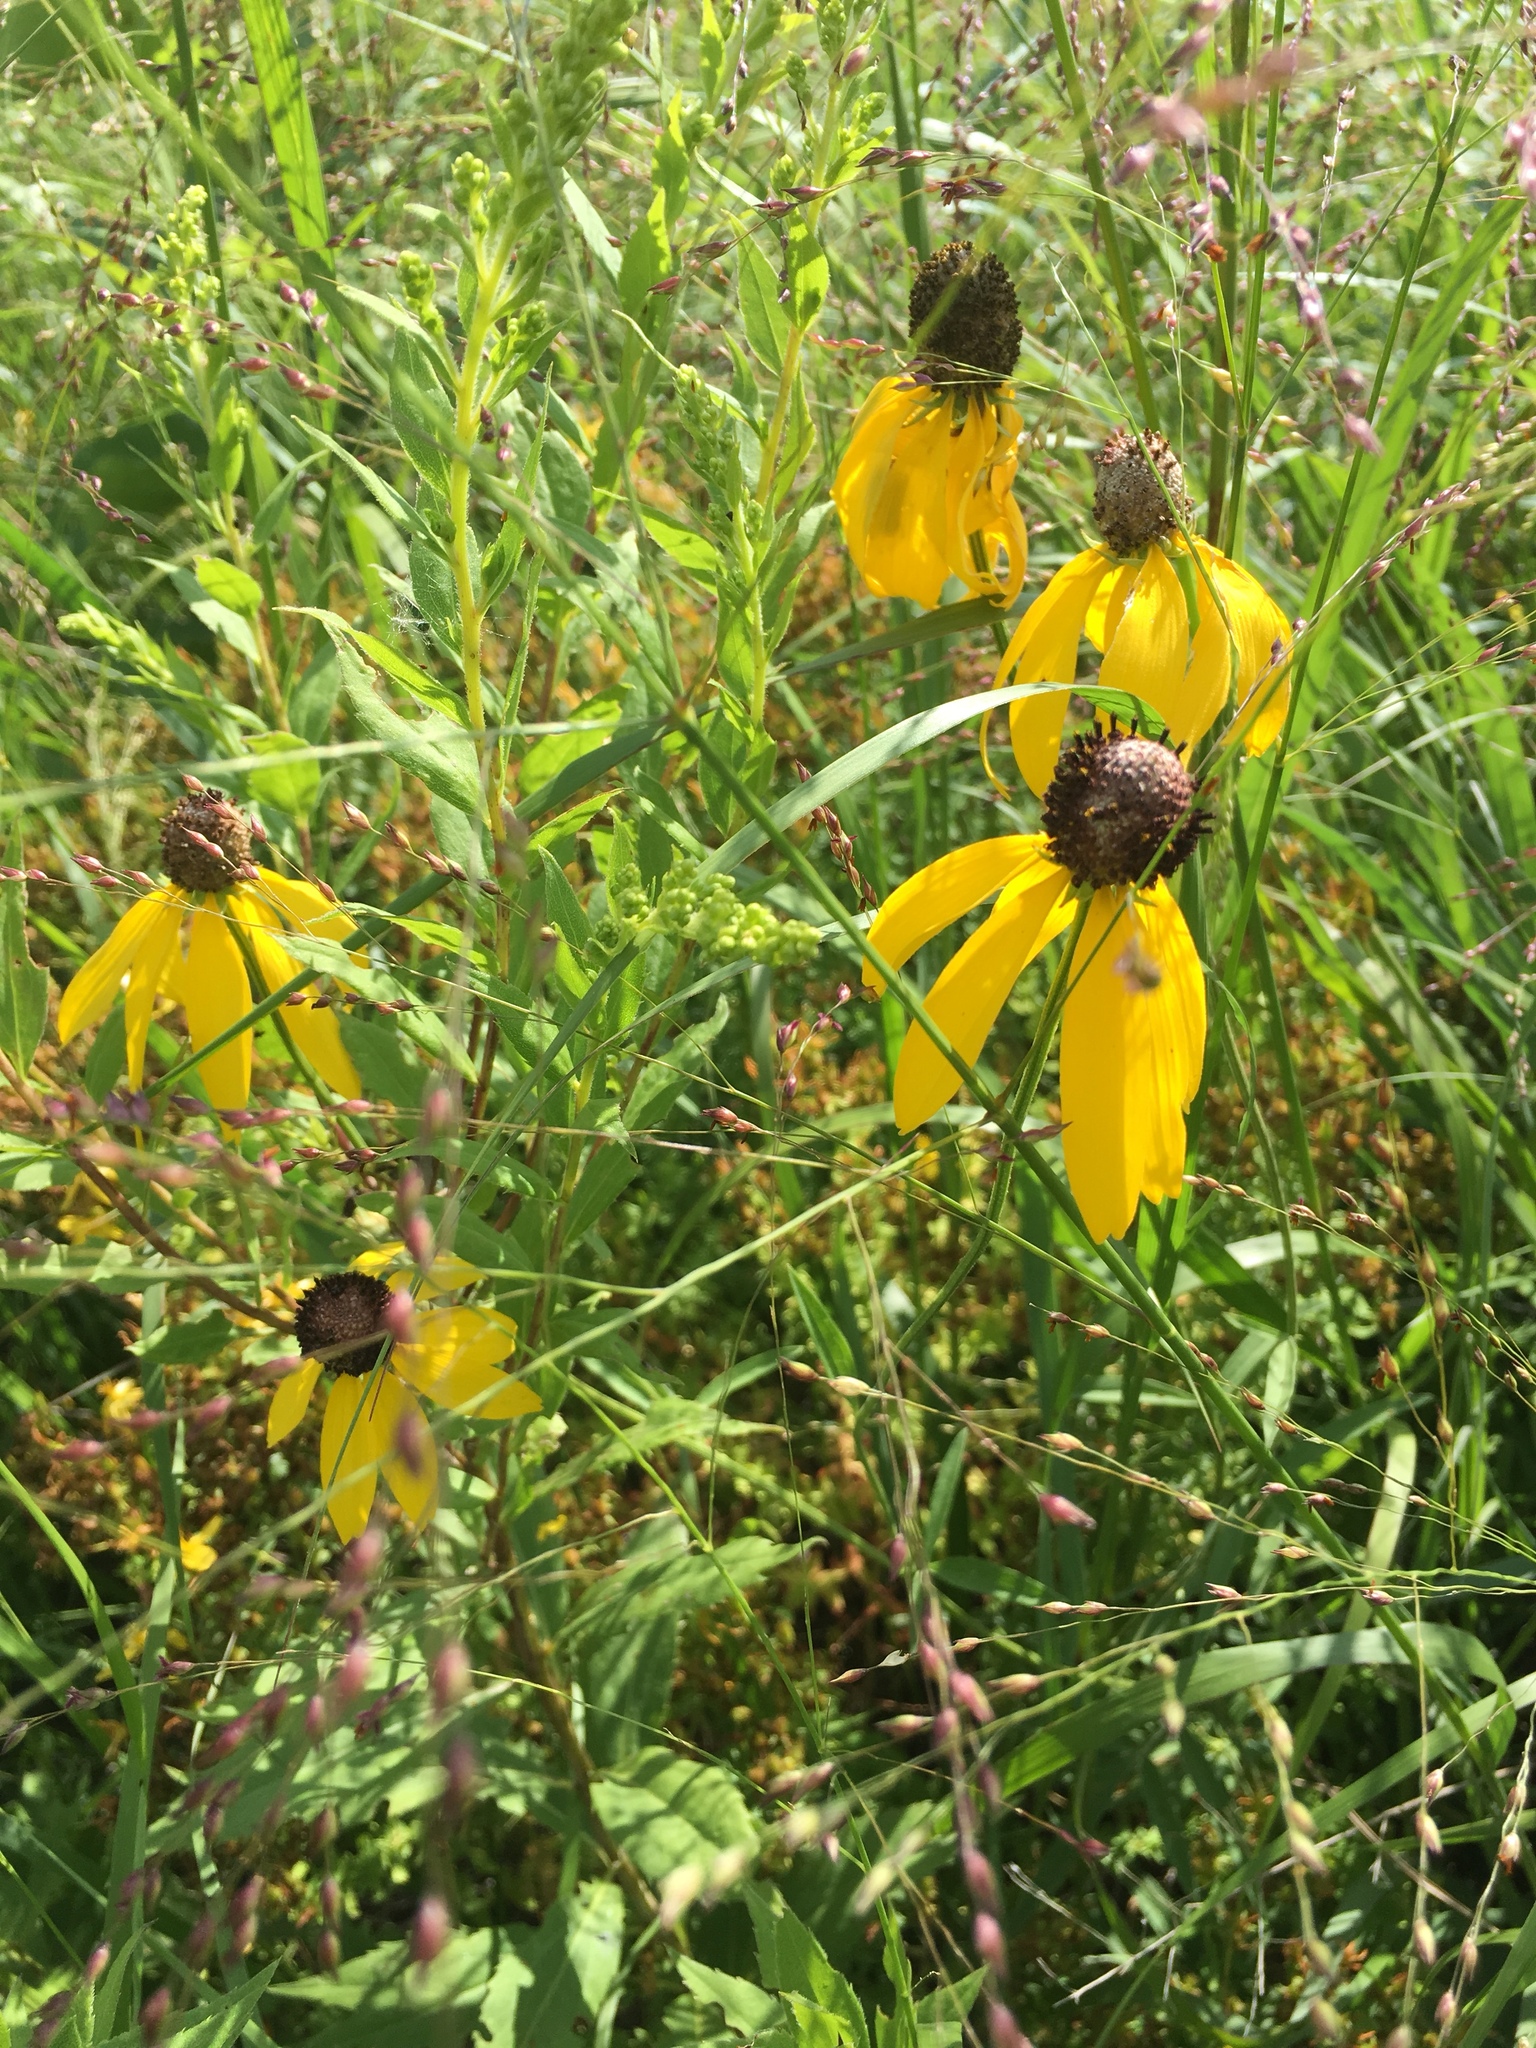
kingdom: Plantae
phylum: Tracheophyta
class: Magnoliopsida
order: Asterales
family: Asteraceae
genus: Ratibida
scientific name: Ratibida pinnata
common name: Drooping prairie-coneflower
